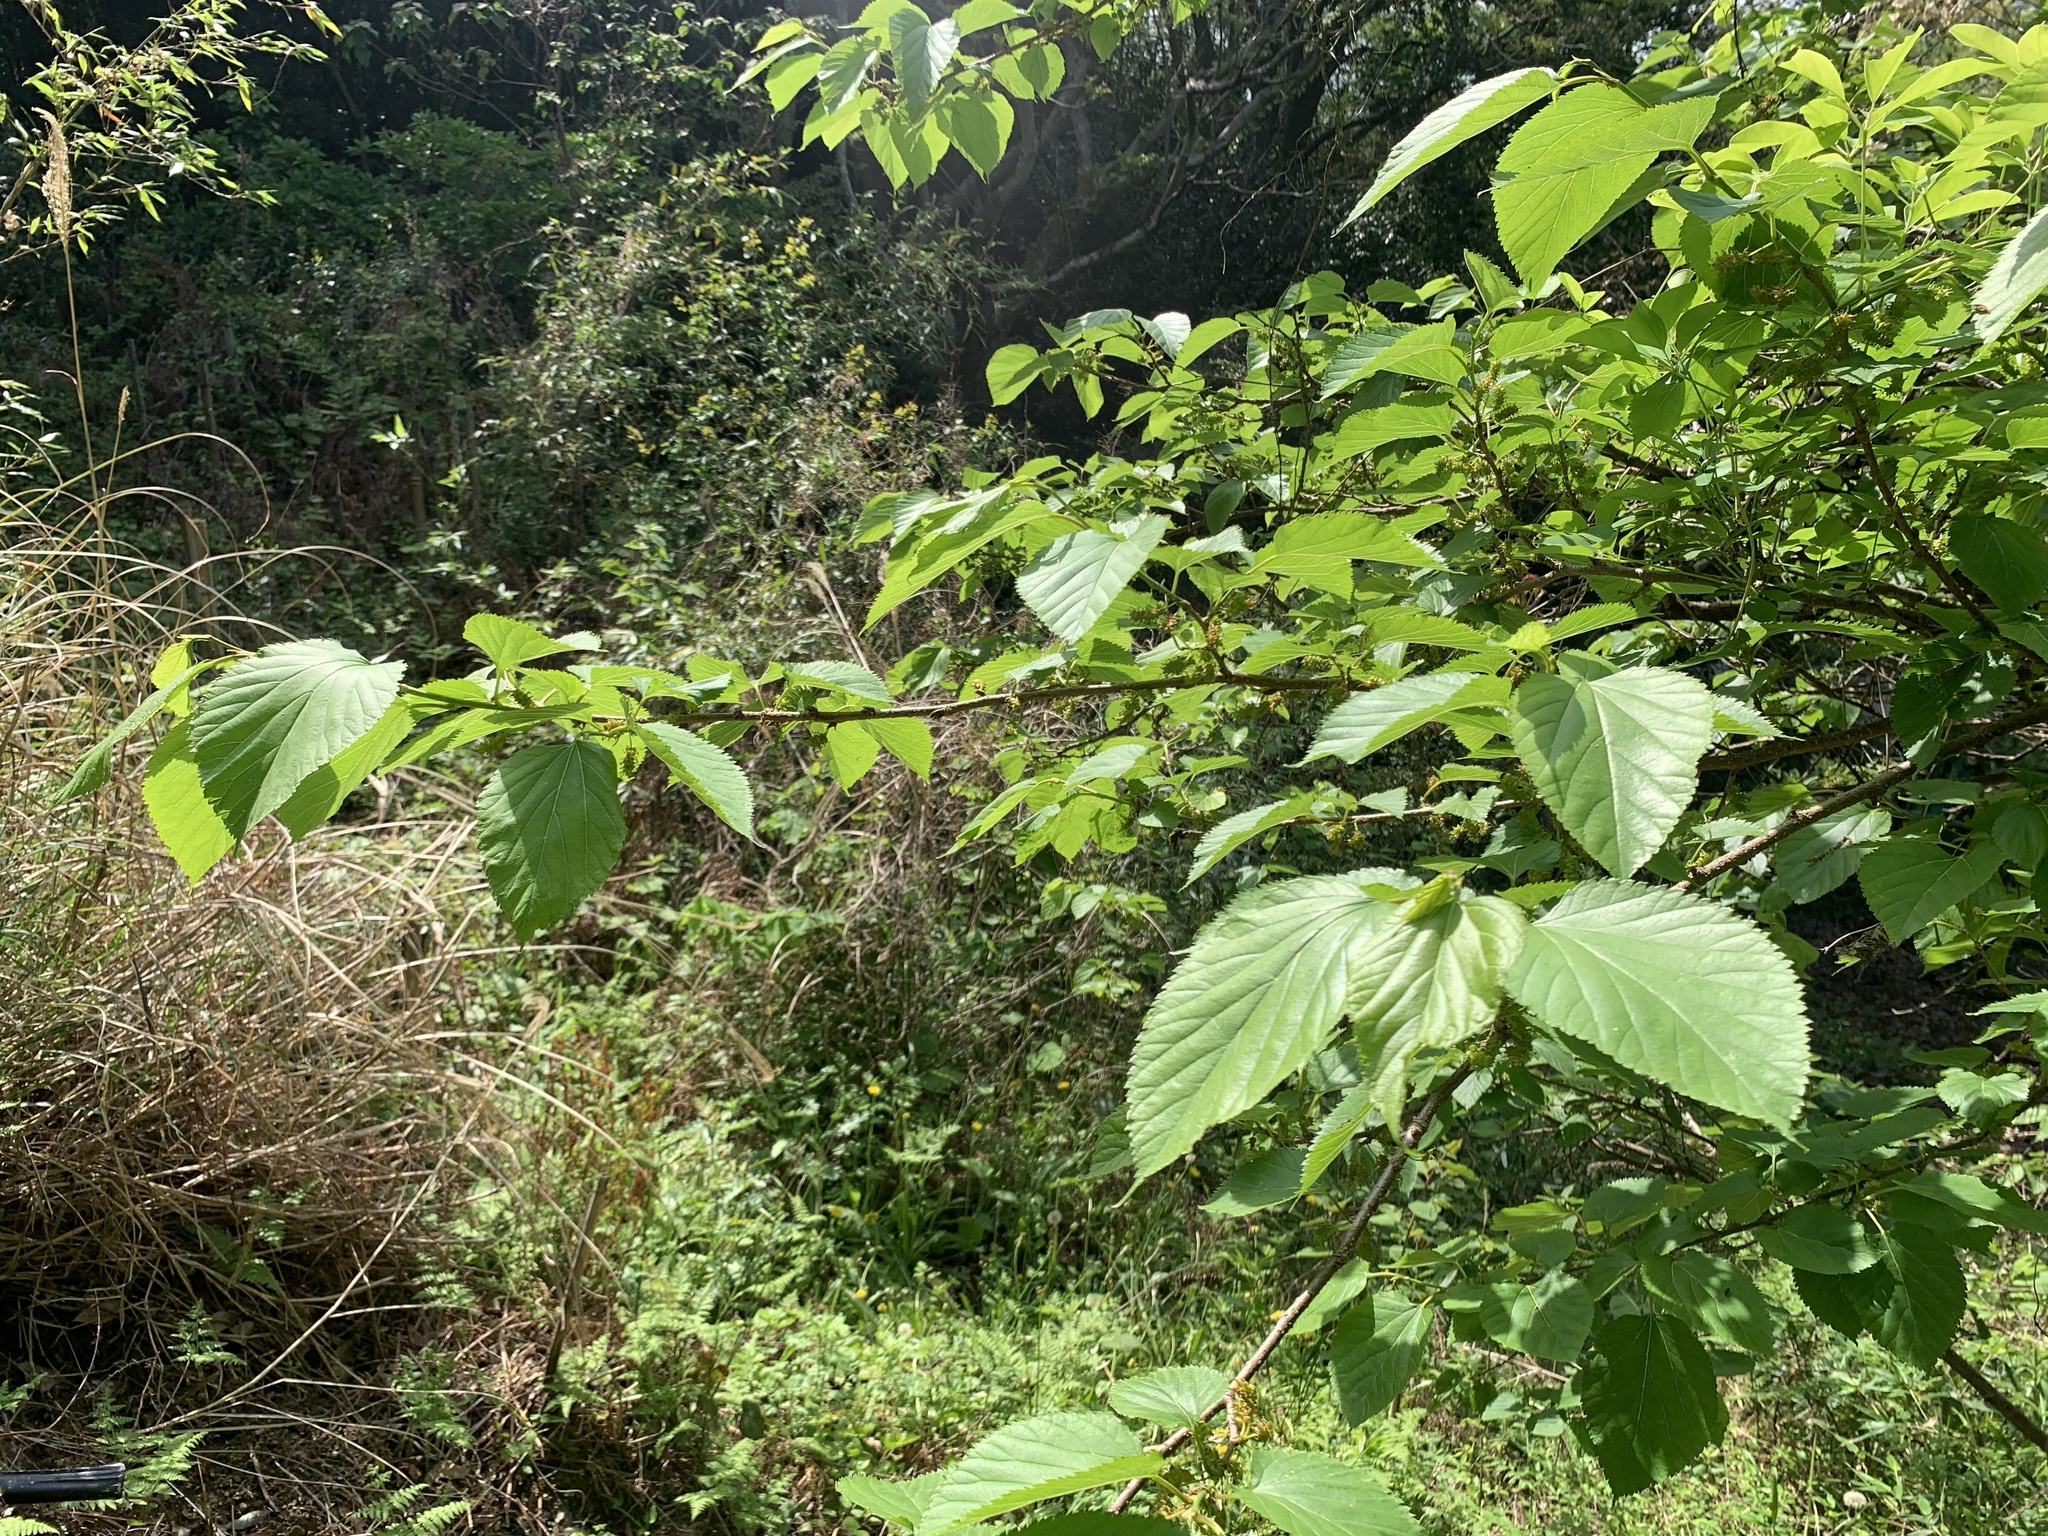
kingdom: Plantae
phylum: Tracheophyta
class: Magnoliopsida
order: Rosales
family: Moraceae
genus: Morus
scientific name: Morus indica
